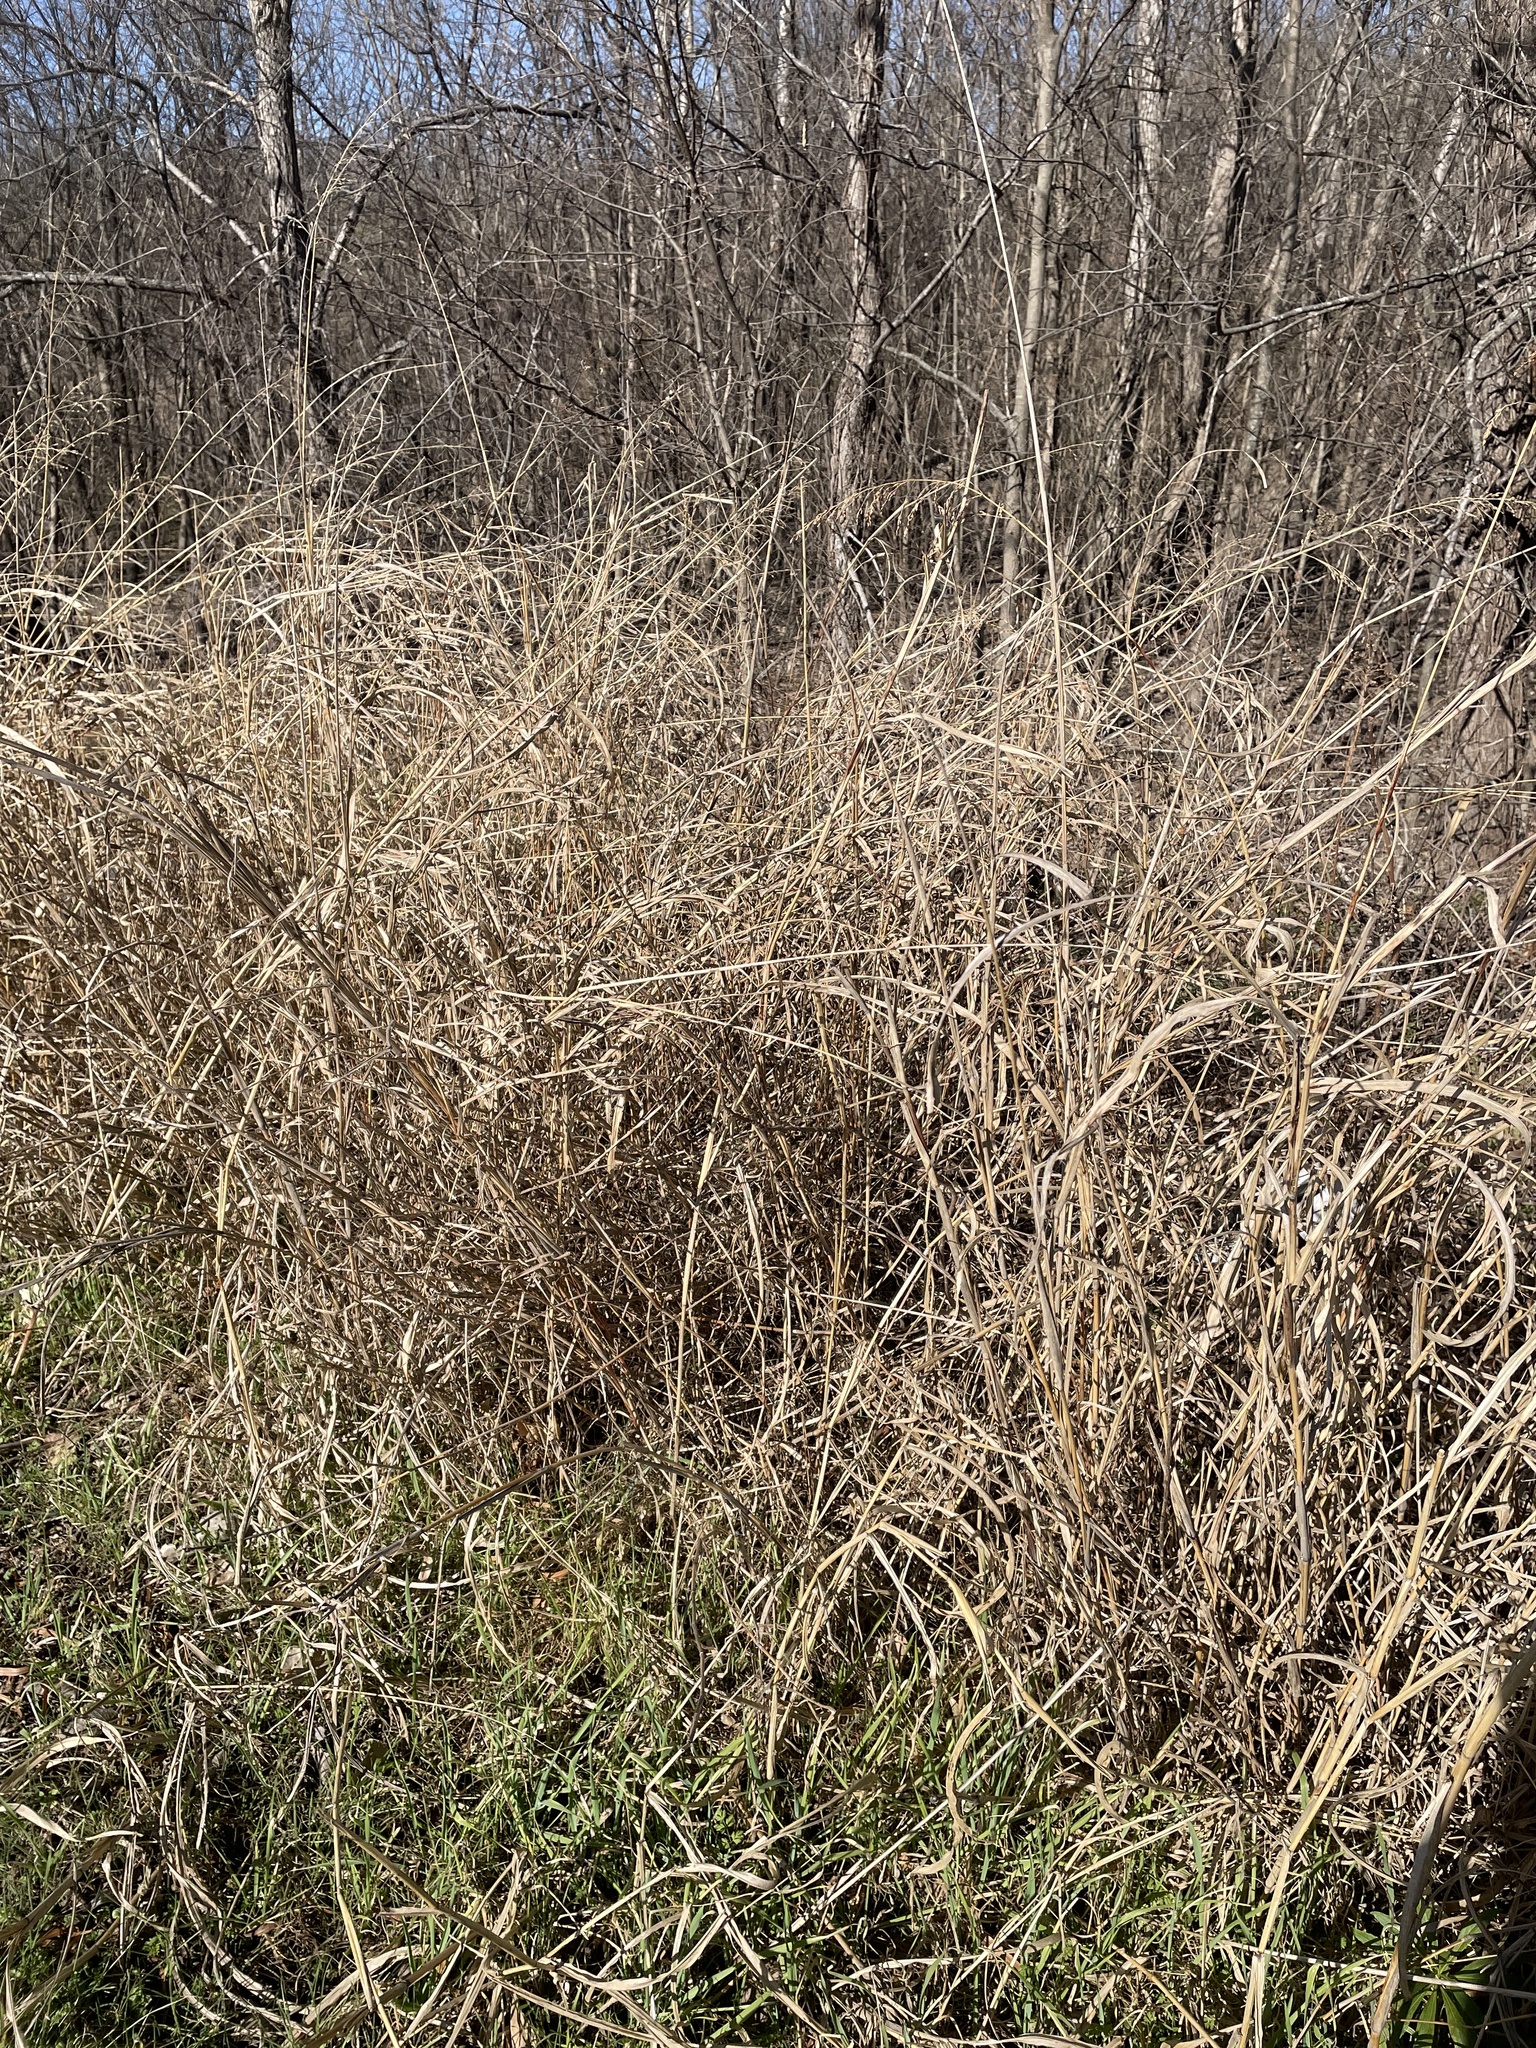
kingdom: Plantae
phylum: Tracheophyta
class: Liliopsida
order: Poales
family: Poaceae
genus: Sorghum
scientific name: Sorghum halepense
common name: Johnson-grass
